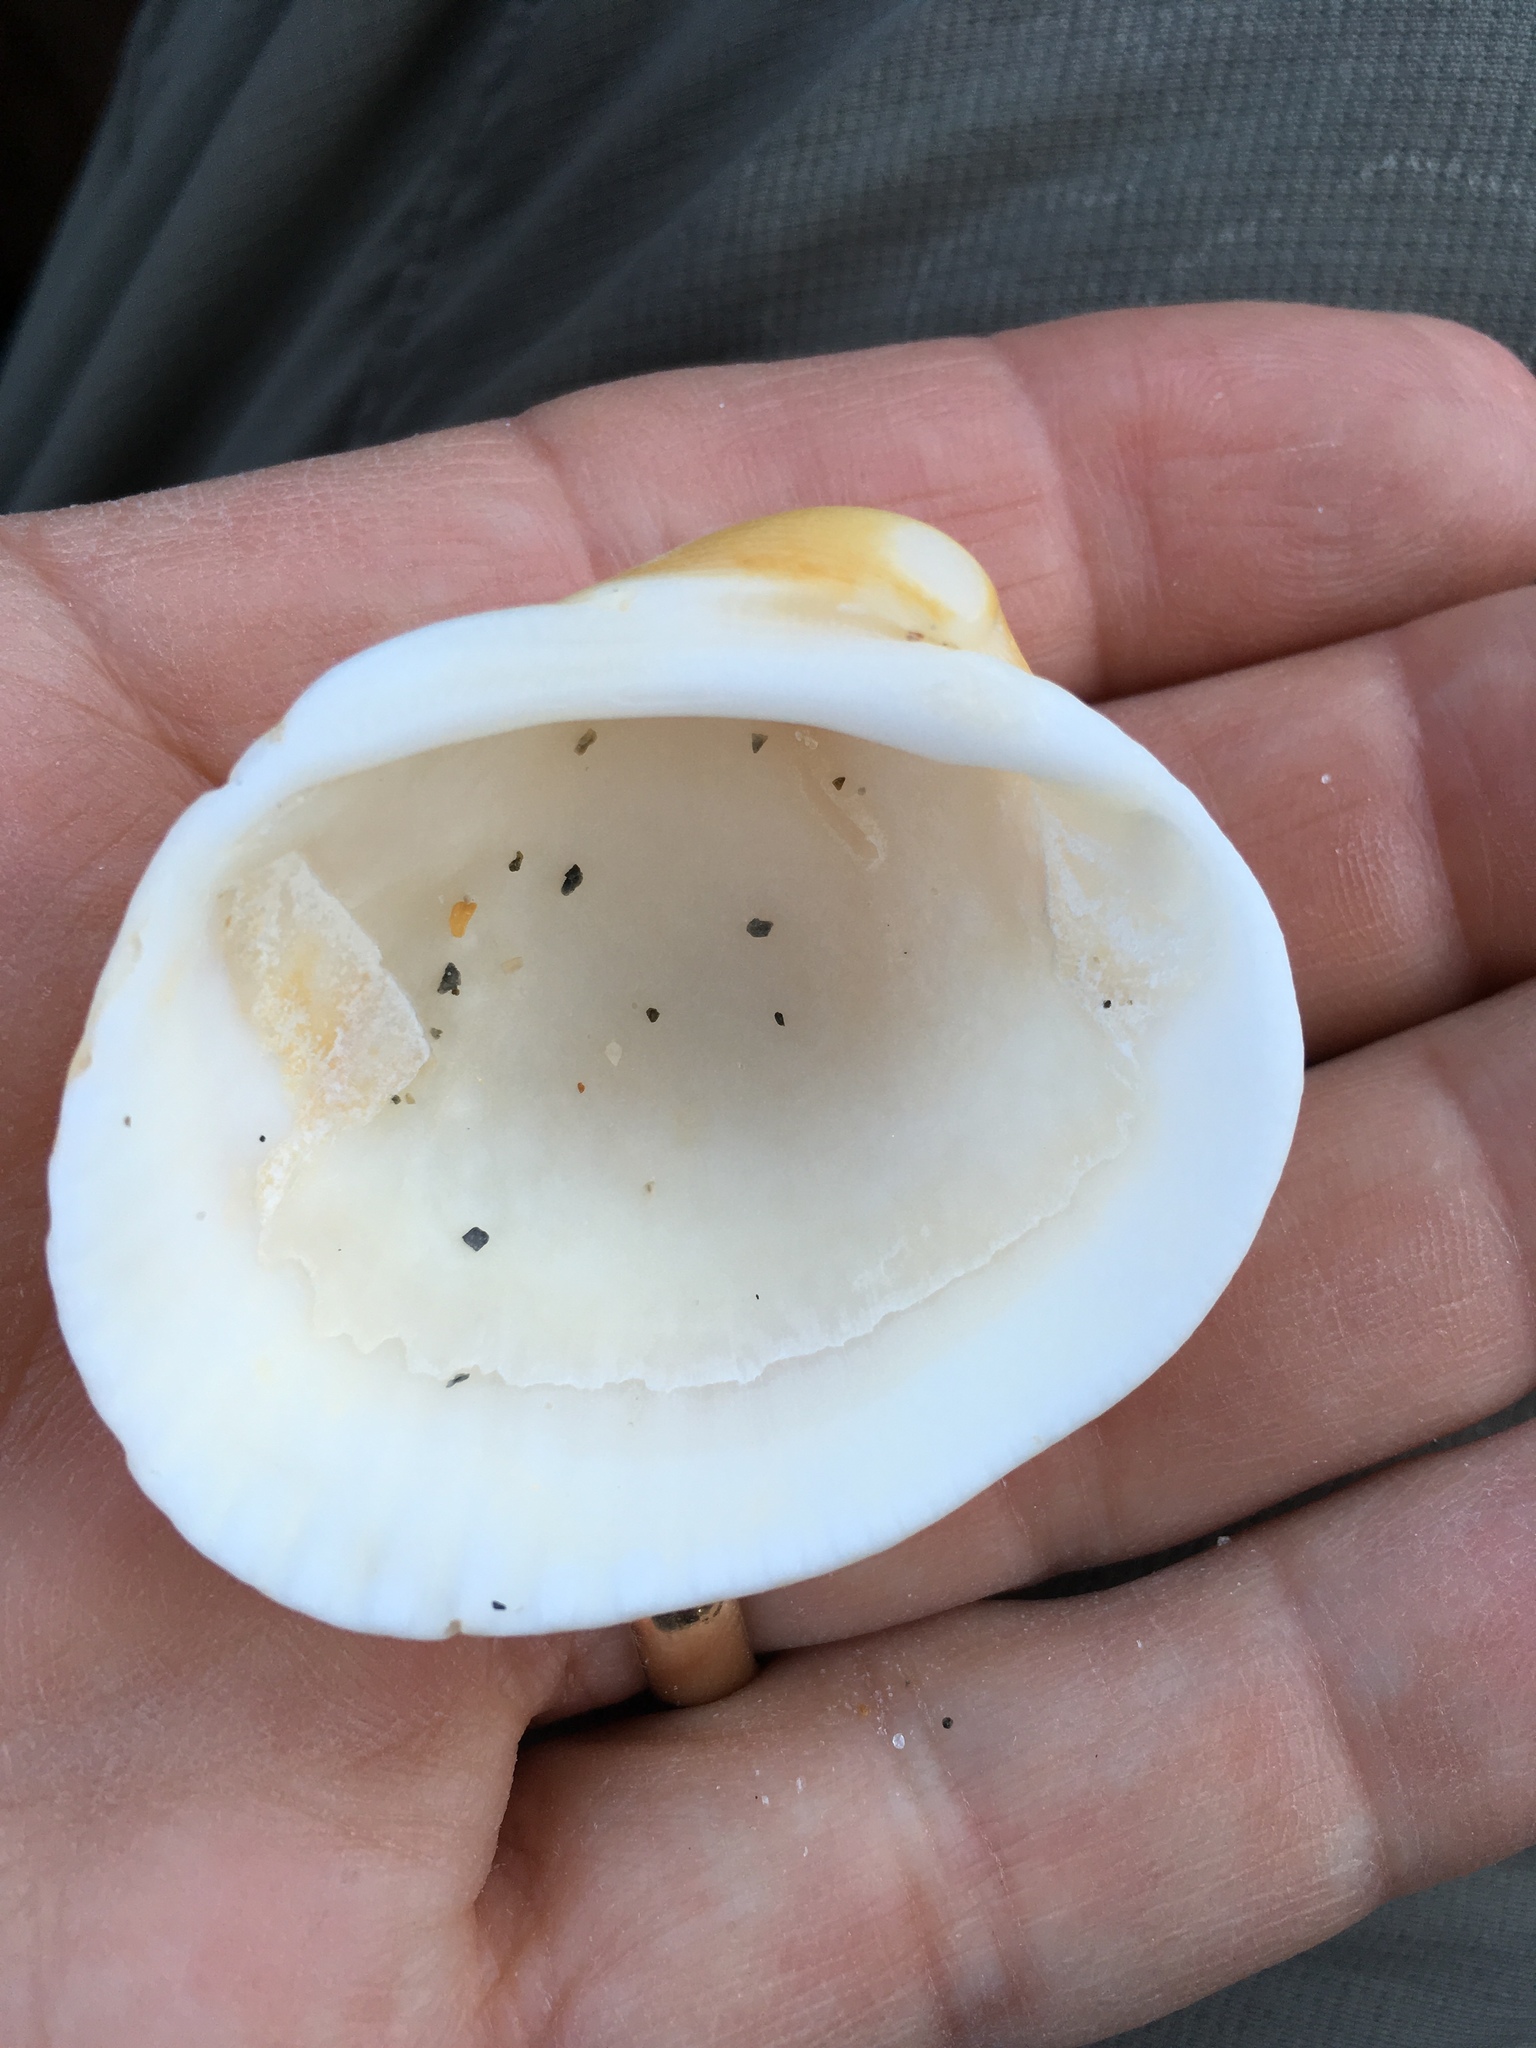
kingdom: Animalia
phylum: Mollusca
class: Bivalvia
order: Arcida
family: Arcidae
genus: Lunarca
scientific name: Lunarca ovalis
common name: Blood ark
